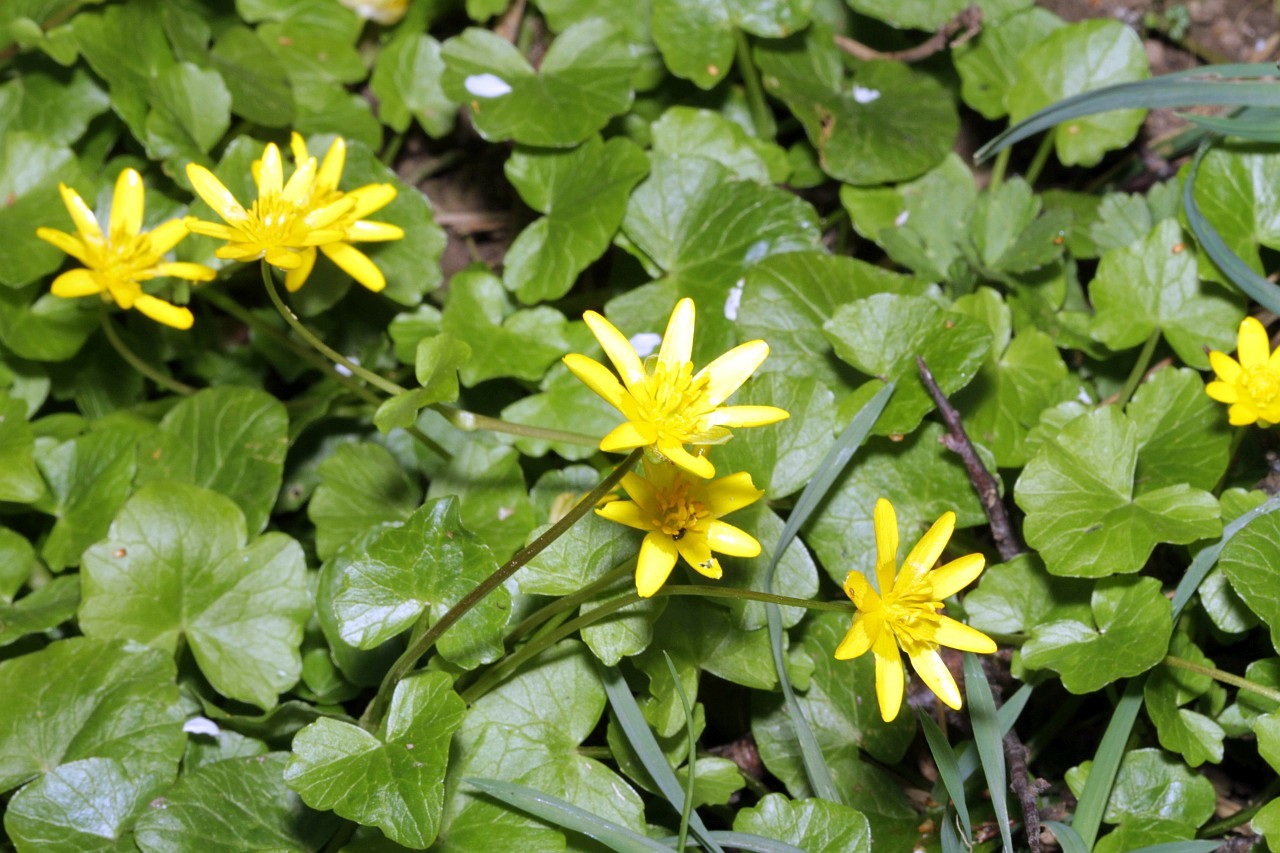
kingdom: Plantae
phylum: Tracheophyta
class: Magnoliopsida
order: Ranunculales
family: Ranunculaceae
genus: Ficaria
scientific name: Ficaria verna
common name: Lesser celandine
